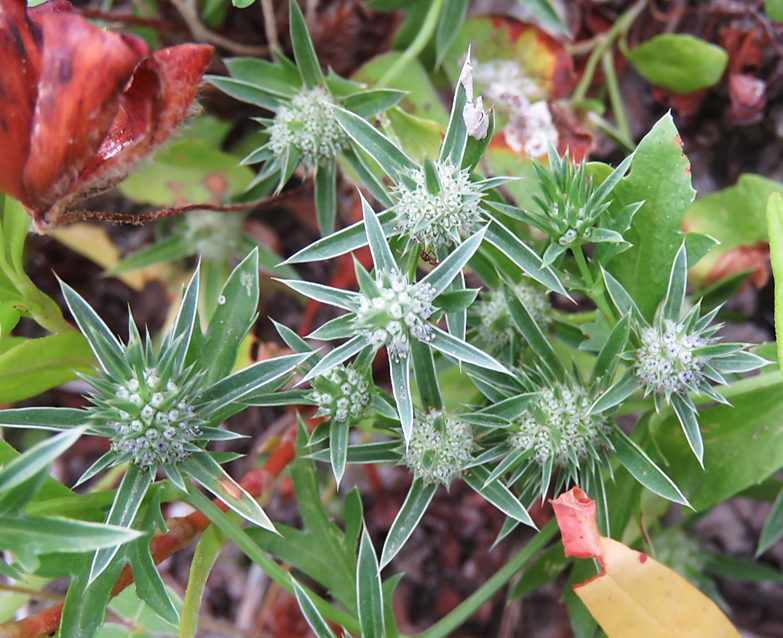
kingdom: Plantae
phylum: Tracheophyta
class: Magnoliopsida
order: Apiales
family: Apiaceae
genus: Eryngium
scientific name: Eryngium nasturtiifolium
